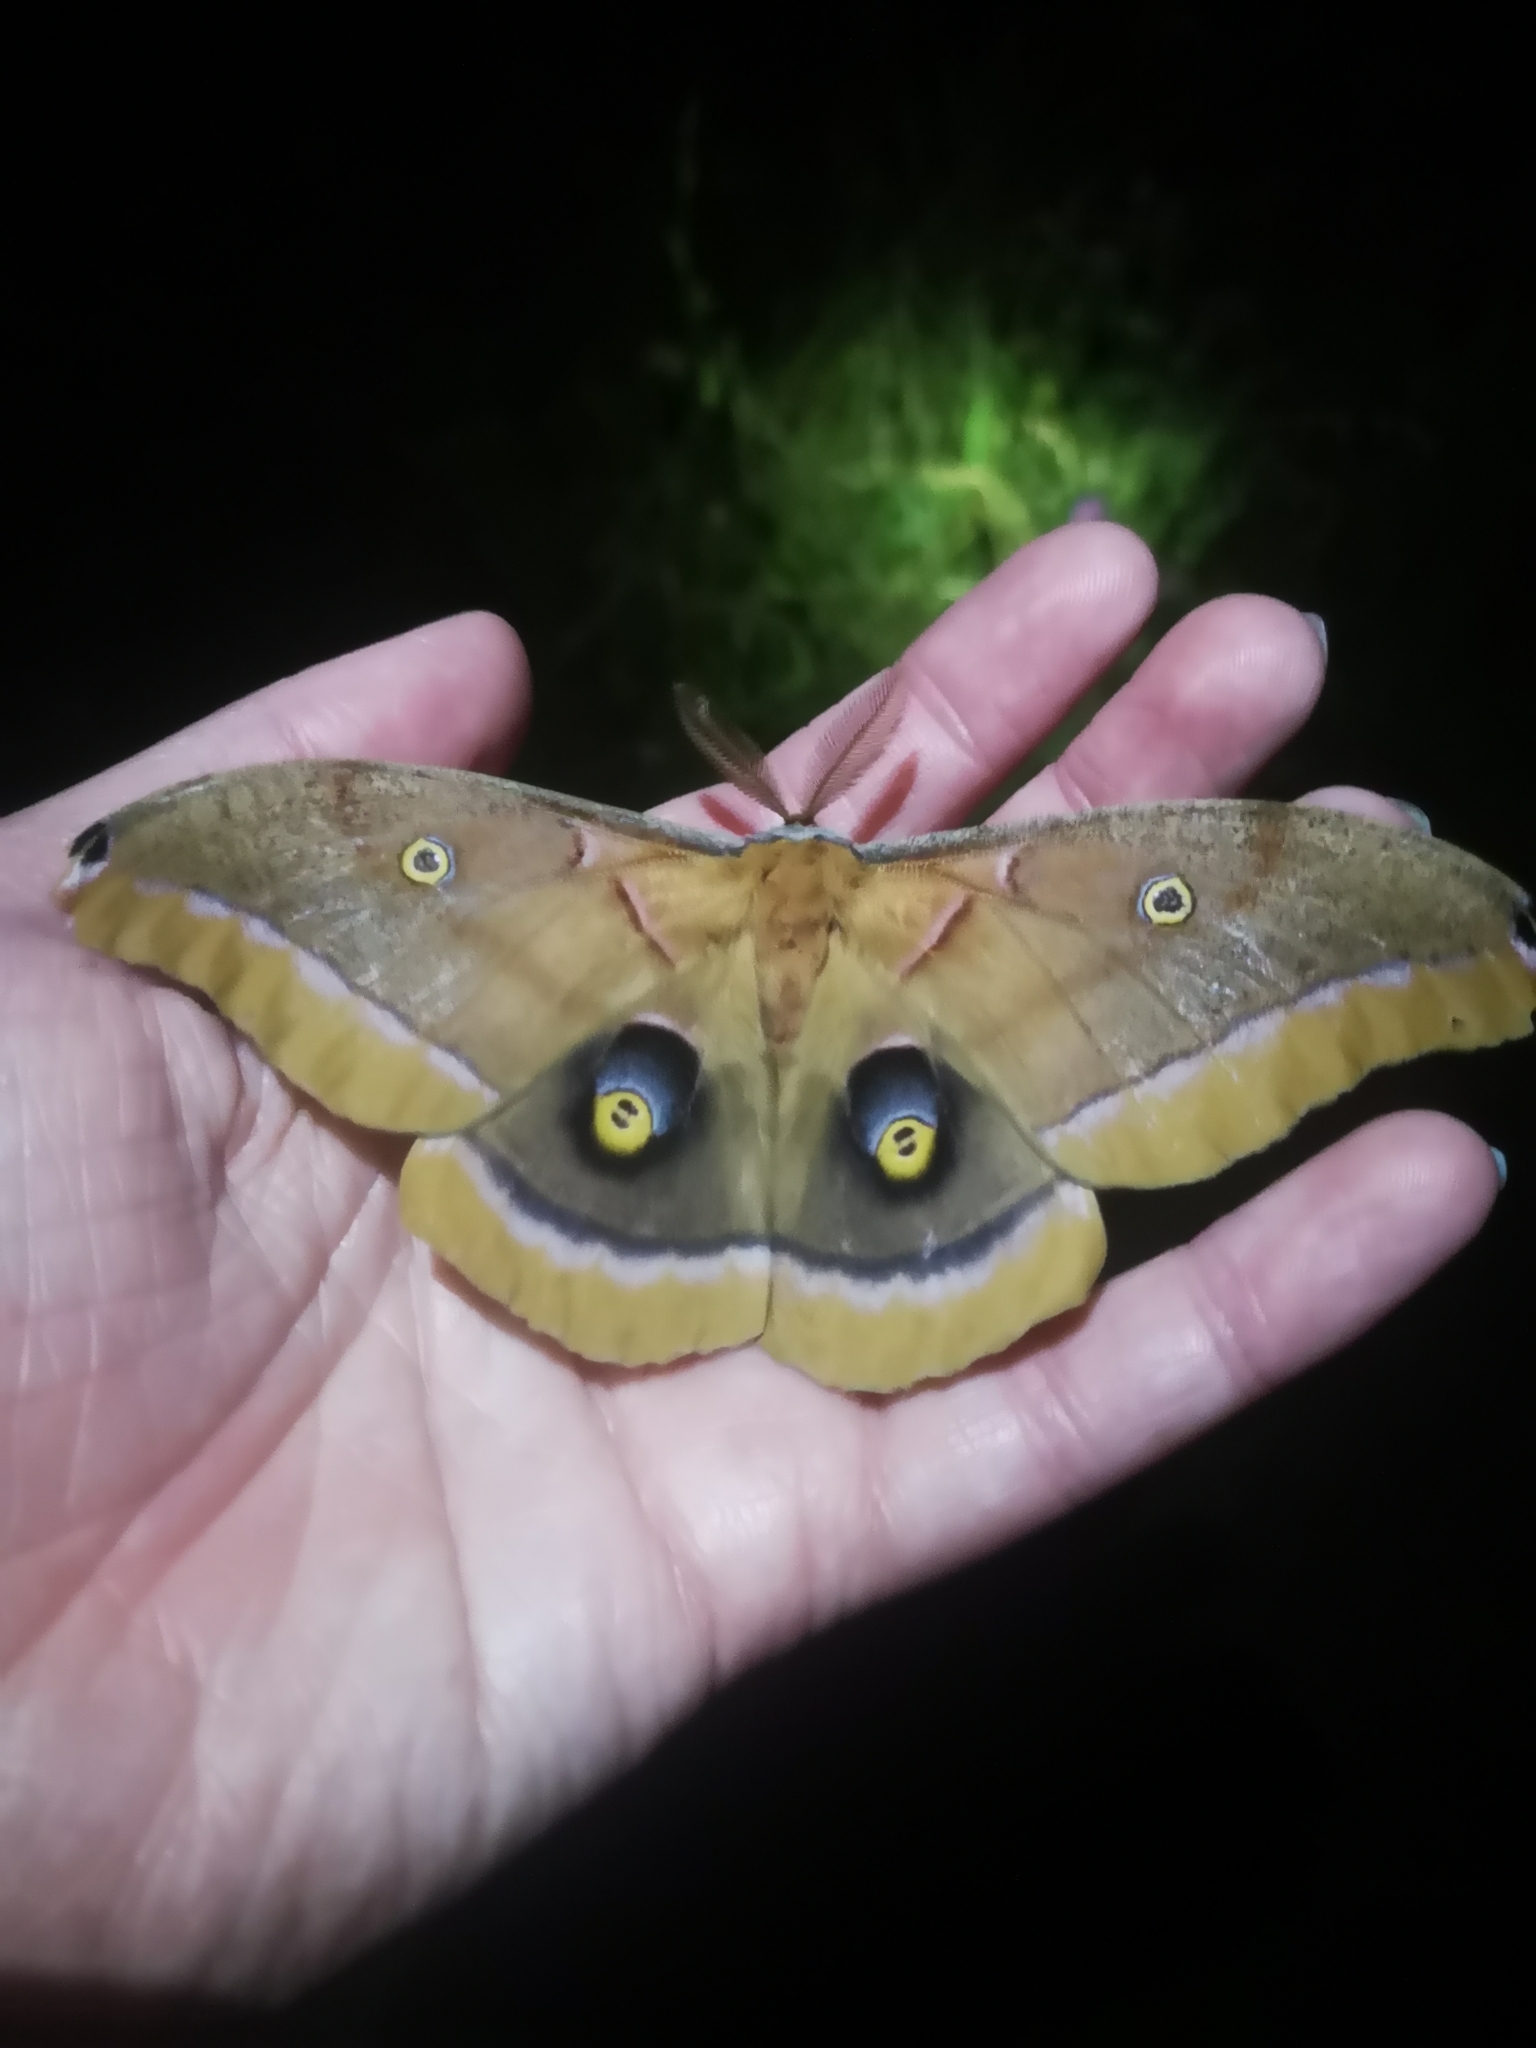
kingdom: Animalia
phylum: Arthropoda
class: Insecta
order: Lepidoptera
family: Saturniidae
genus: Antheraea
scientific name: Antheraea polyphemus
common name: Polyphemus moth
